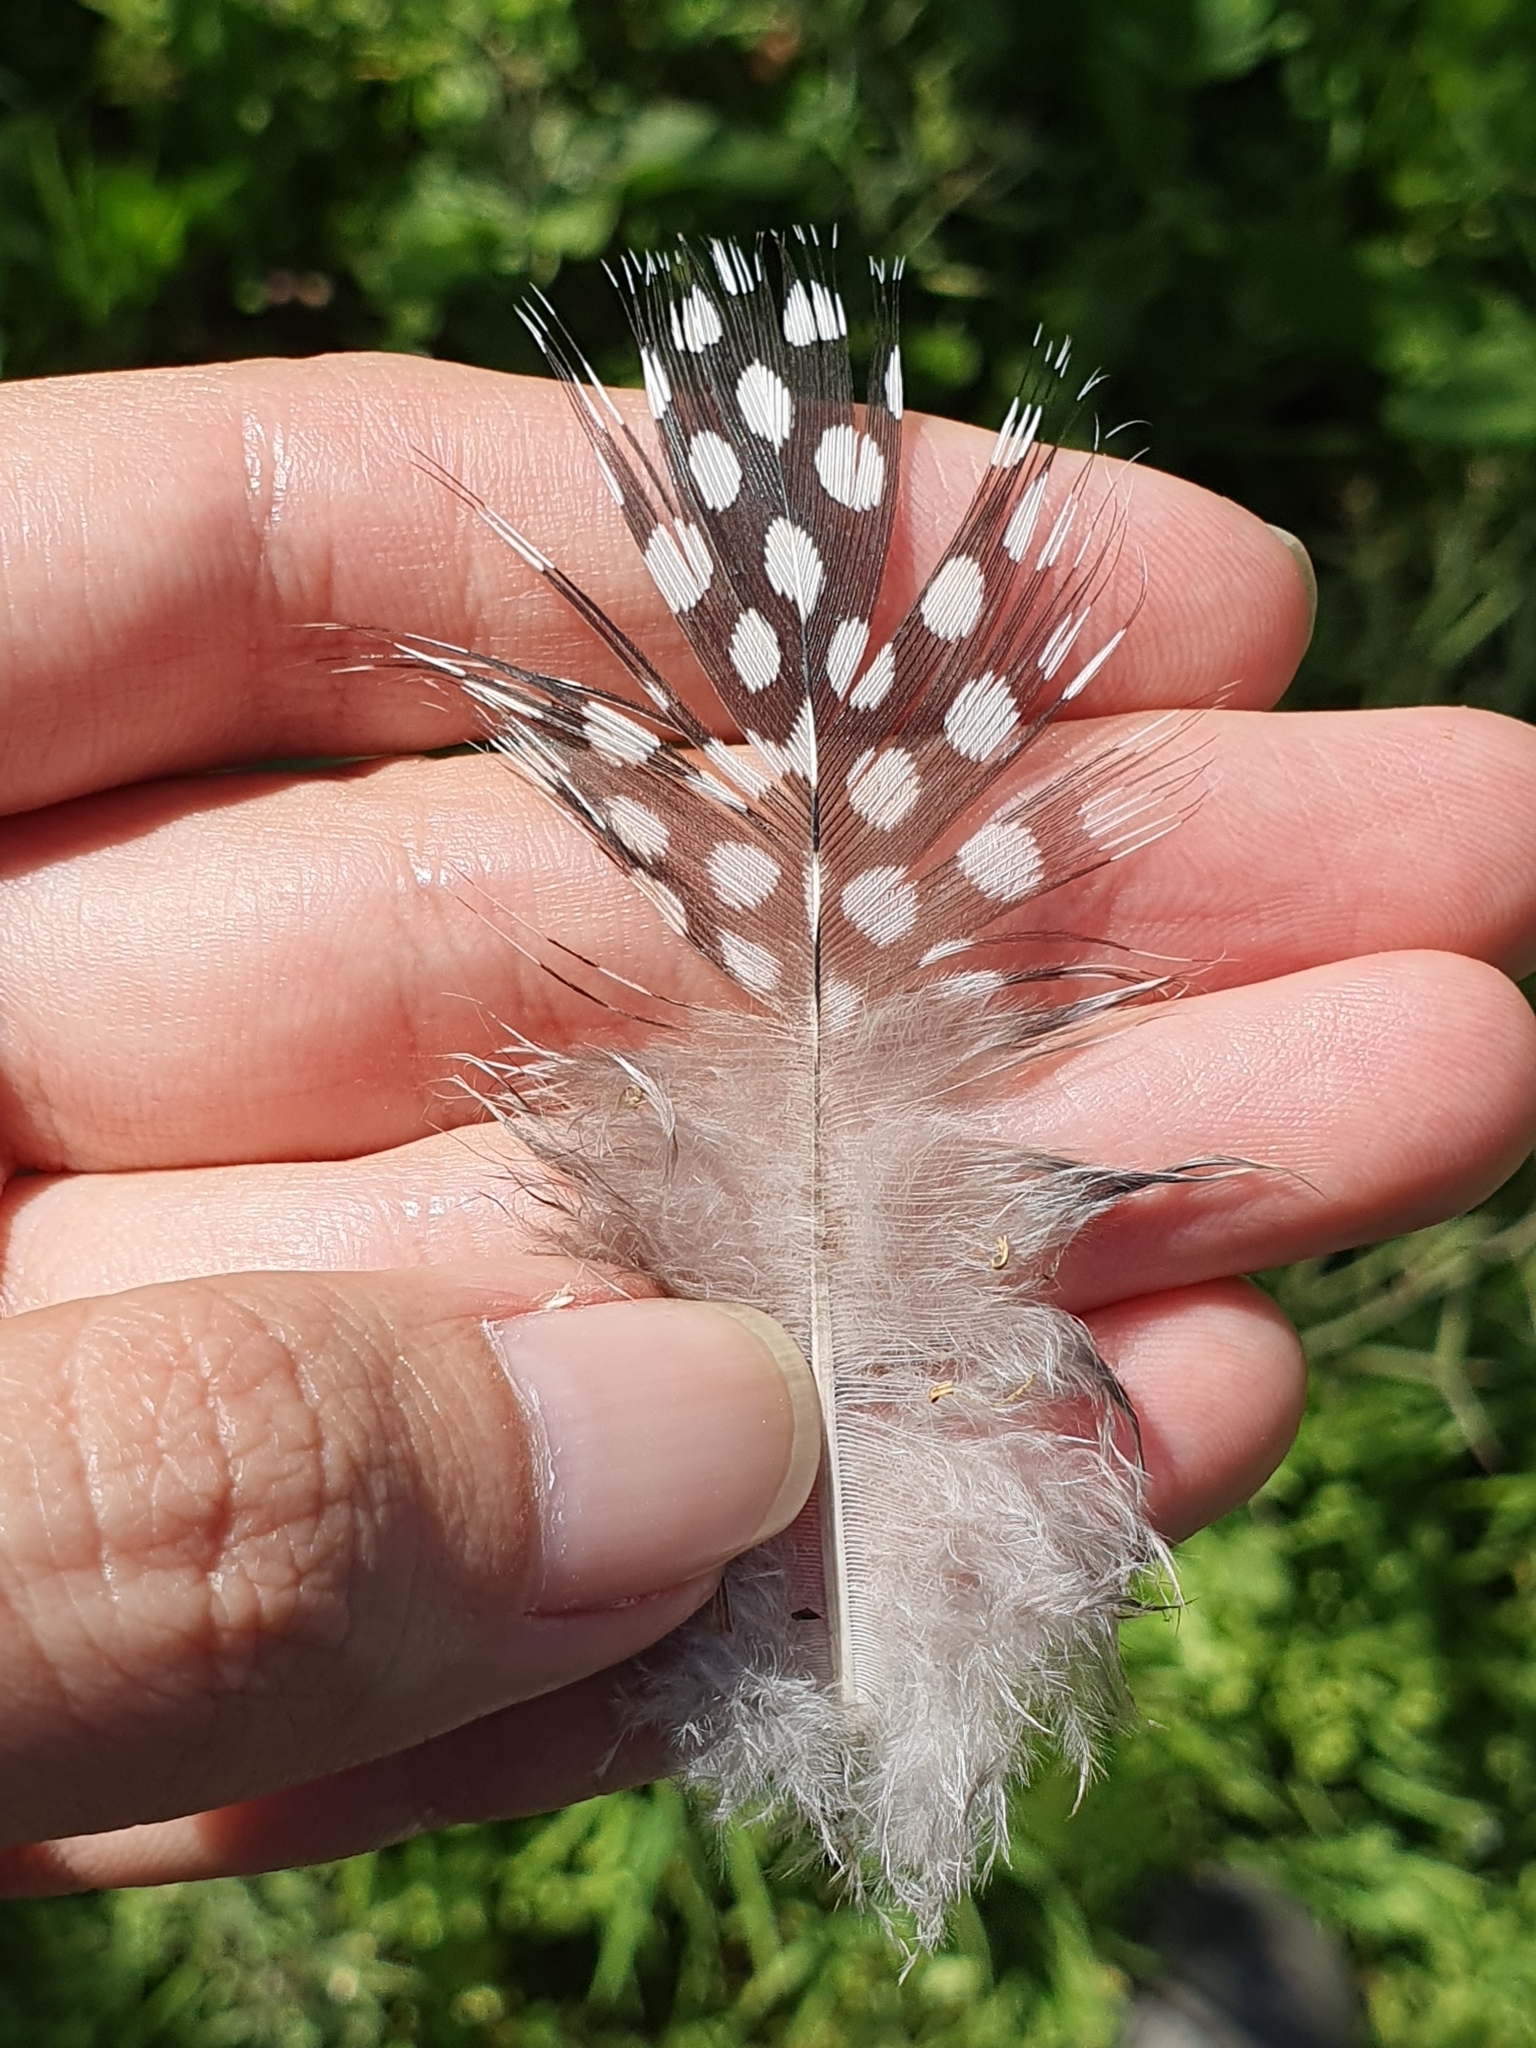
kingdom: Animalia
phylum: Chordata
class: Aves
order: Galliformes
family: Numididae
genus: Numida
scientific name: Numida meleagris
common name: Helmeted guineafowl
